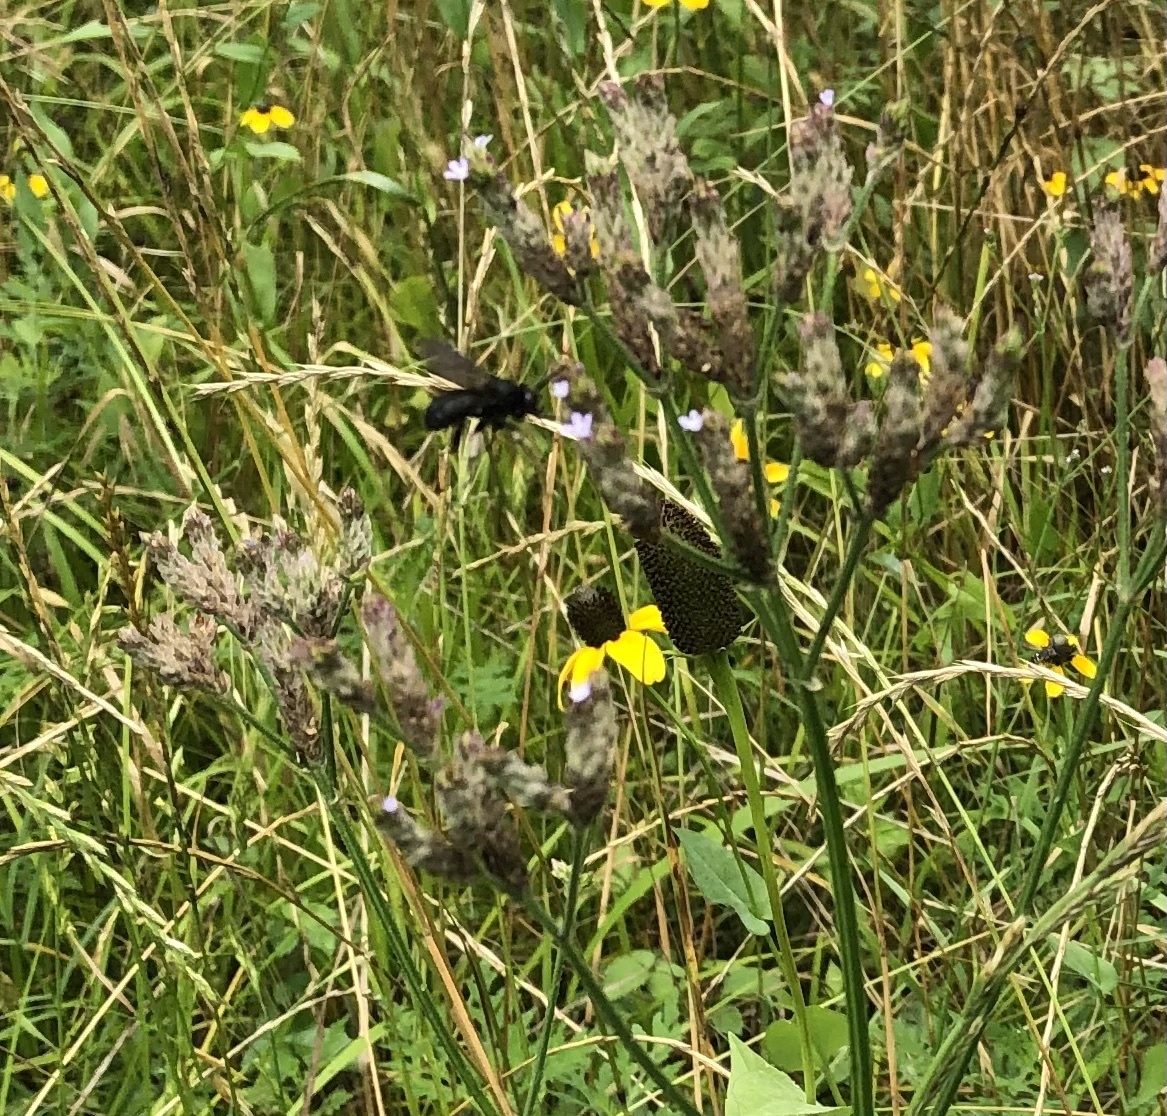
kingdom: Animalia
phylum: Arthropoda
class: Insecta
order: Hymenoptera
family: Apidae
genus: Melissodes
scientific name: Melissodes bimaculatus
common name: Two-spotted long-horned bee
